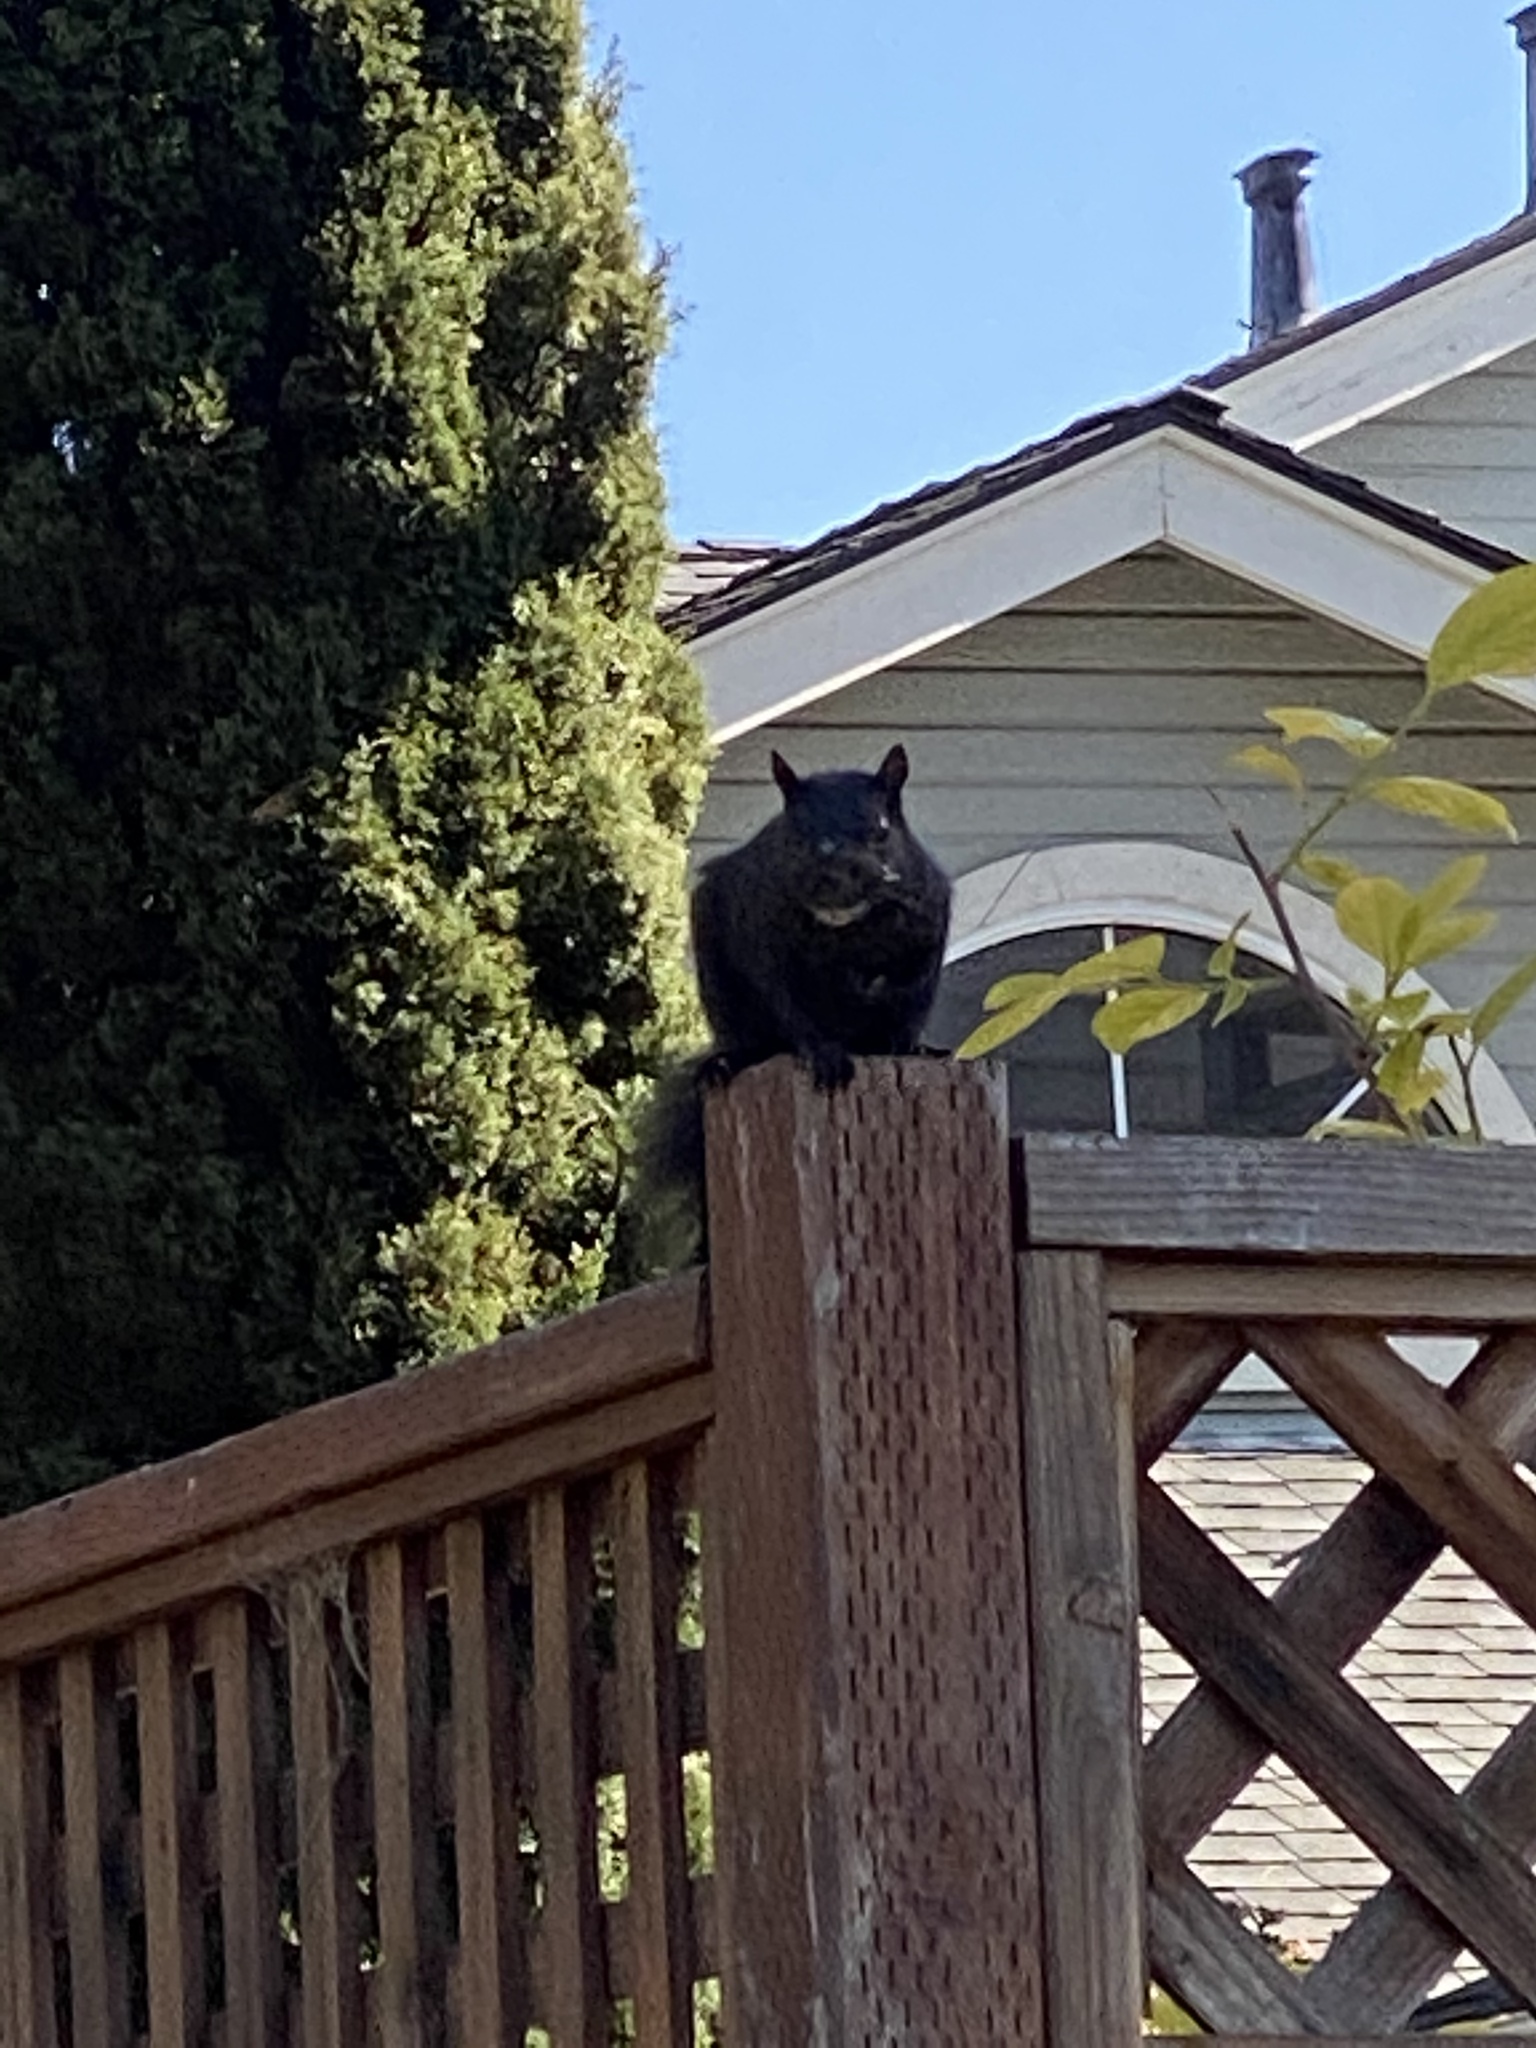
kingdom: Animalia
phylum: Chordata
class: Mammalia
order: Rodentia
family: Sciuridae
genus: Sciurus
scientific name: Sciurus carolinensis
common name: Eastern gray squirrel
